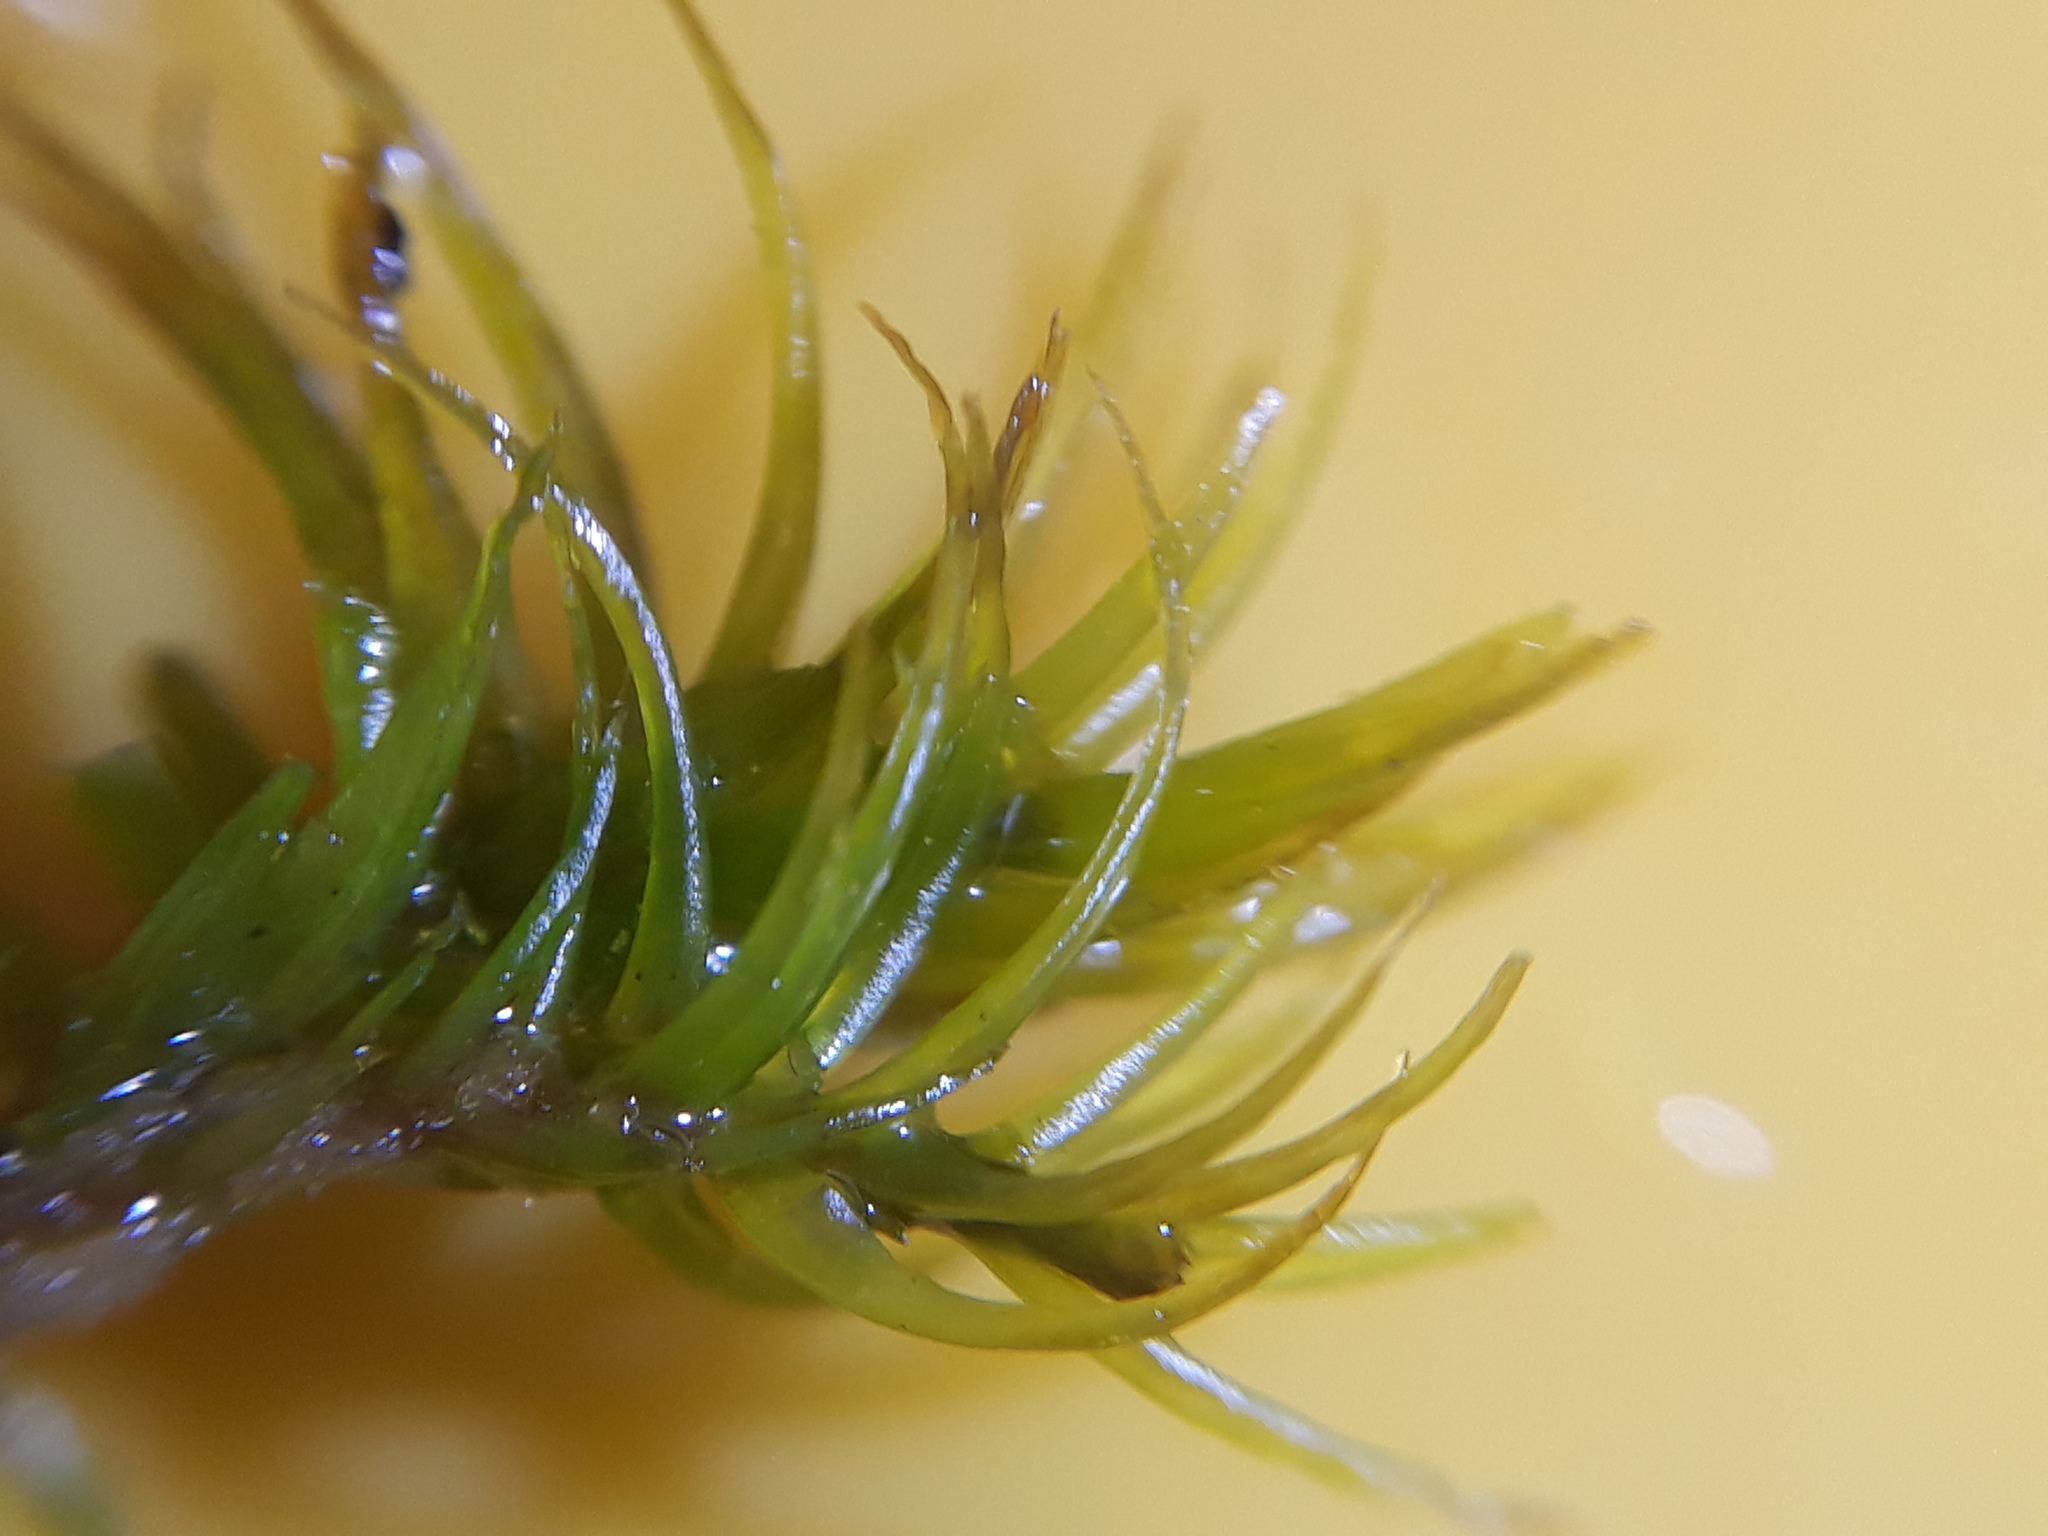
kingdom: Plantae
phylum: Bryophyta
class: Bryopsida
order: Dicranales
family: Dicranaceae
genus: Dicranum
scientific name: Dicranum scoparium
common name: Broom fork-moss
